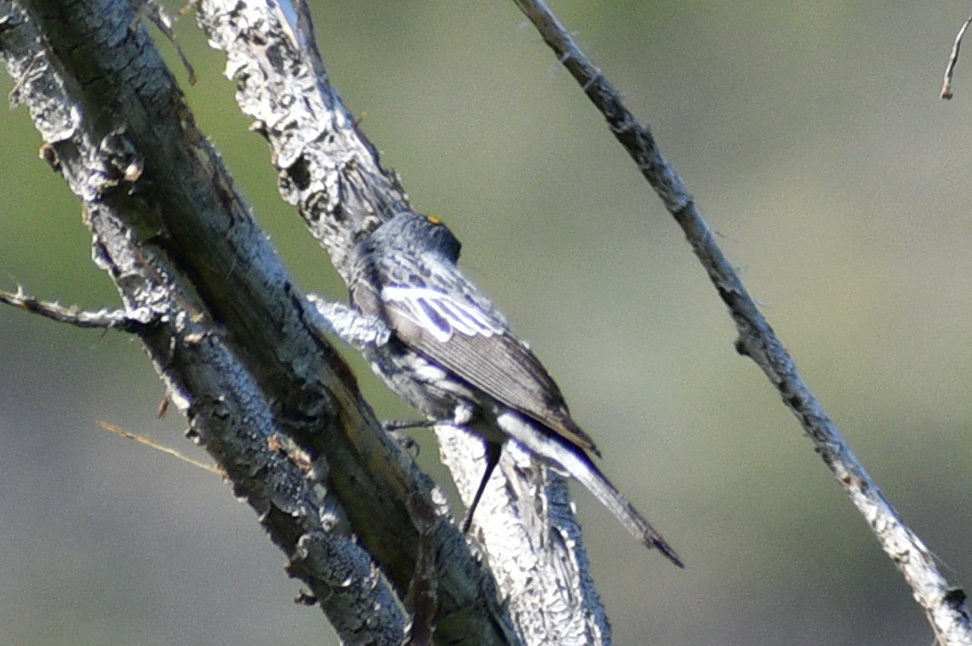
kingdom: Animalia
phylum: Chordata
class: Aves
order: Passeriformes
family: Parulidae
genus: Setophaga
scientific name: Setophaga auduboni
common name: Audubon's warbler
